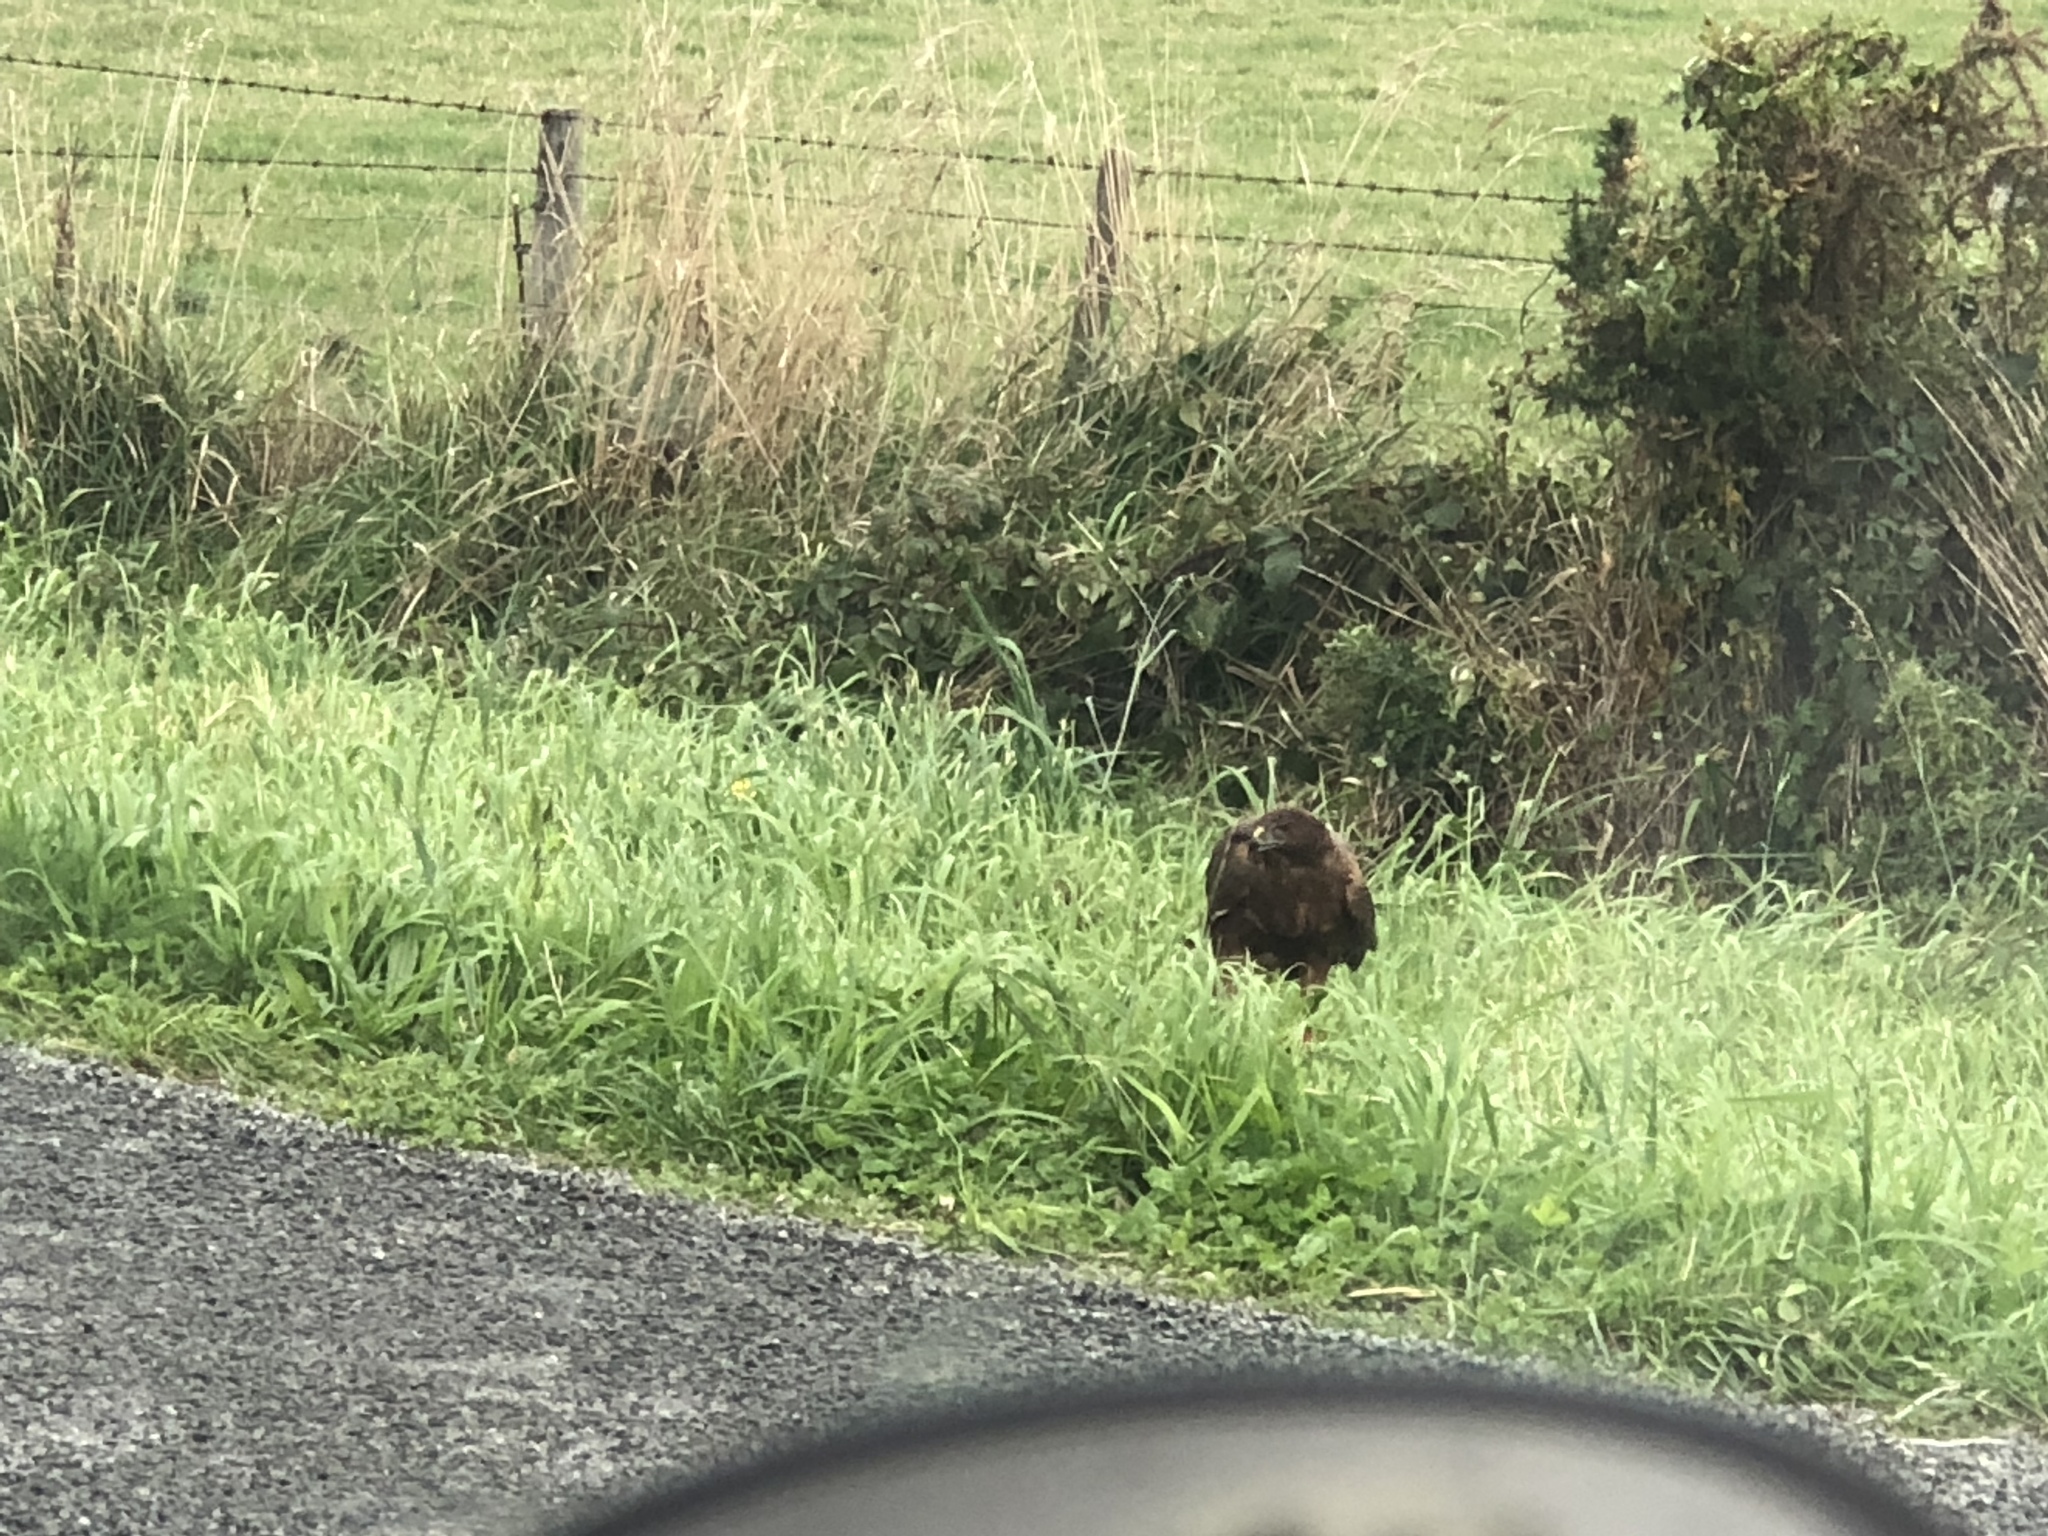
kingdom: Animalia
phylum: Chordata
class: Aves
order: Accipitriformes
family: Accipitridae
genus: Circus
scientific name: Circus approximans
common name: Swamp harrier
